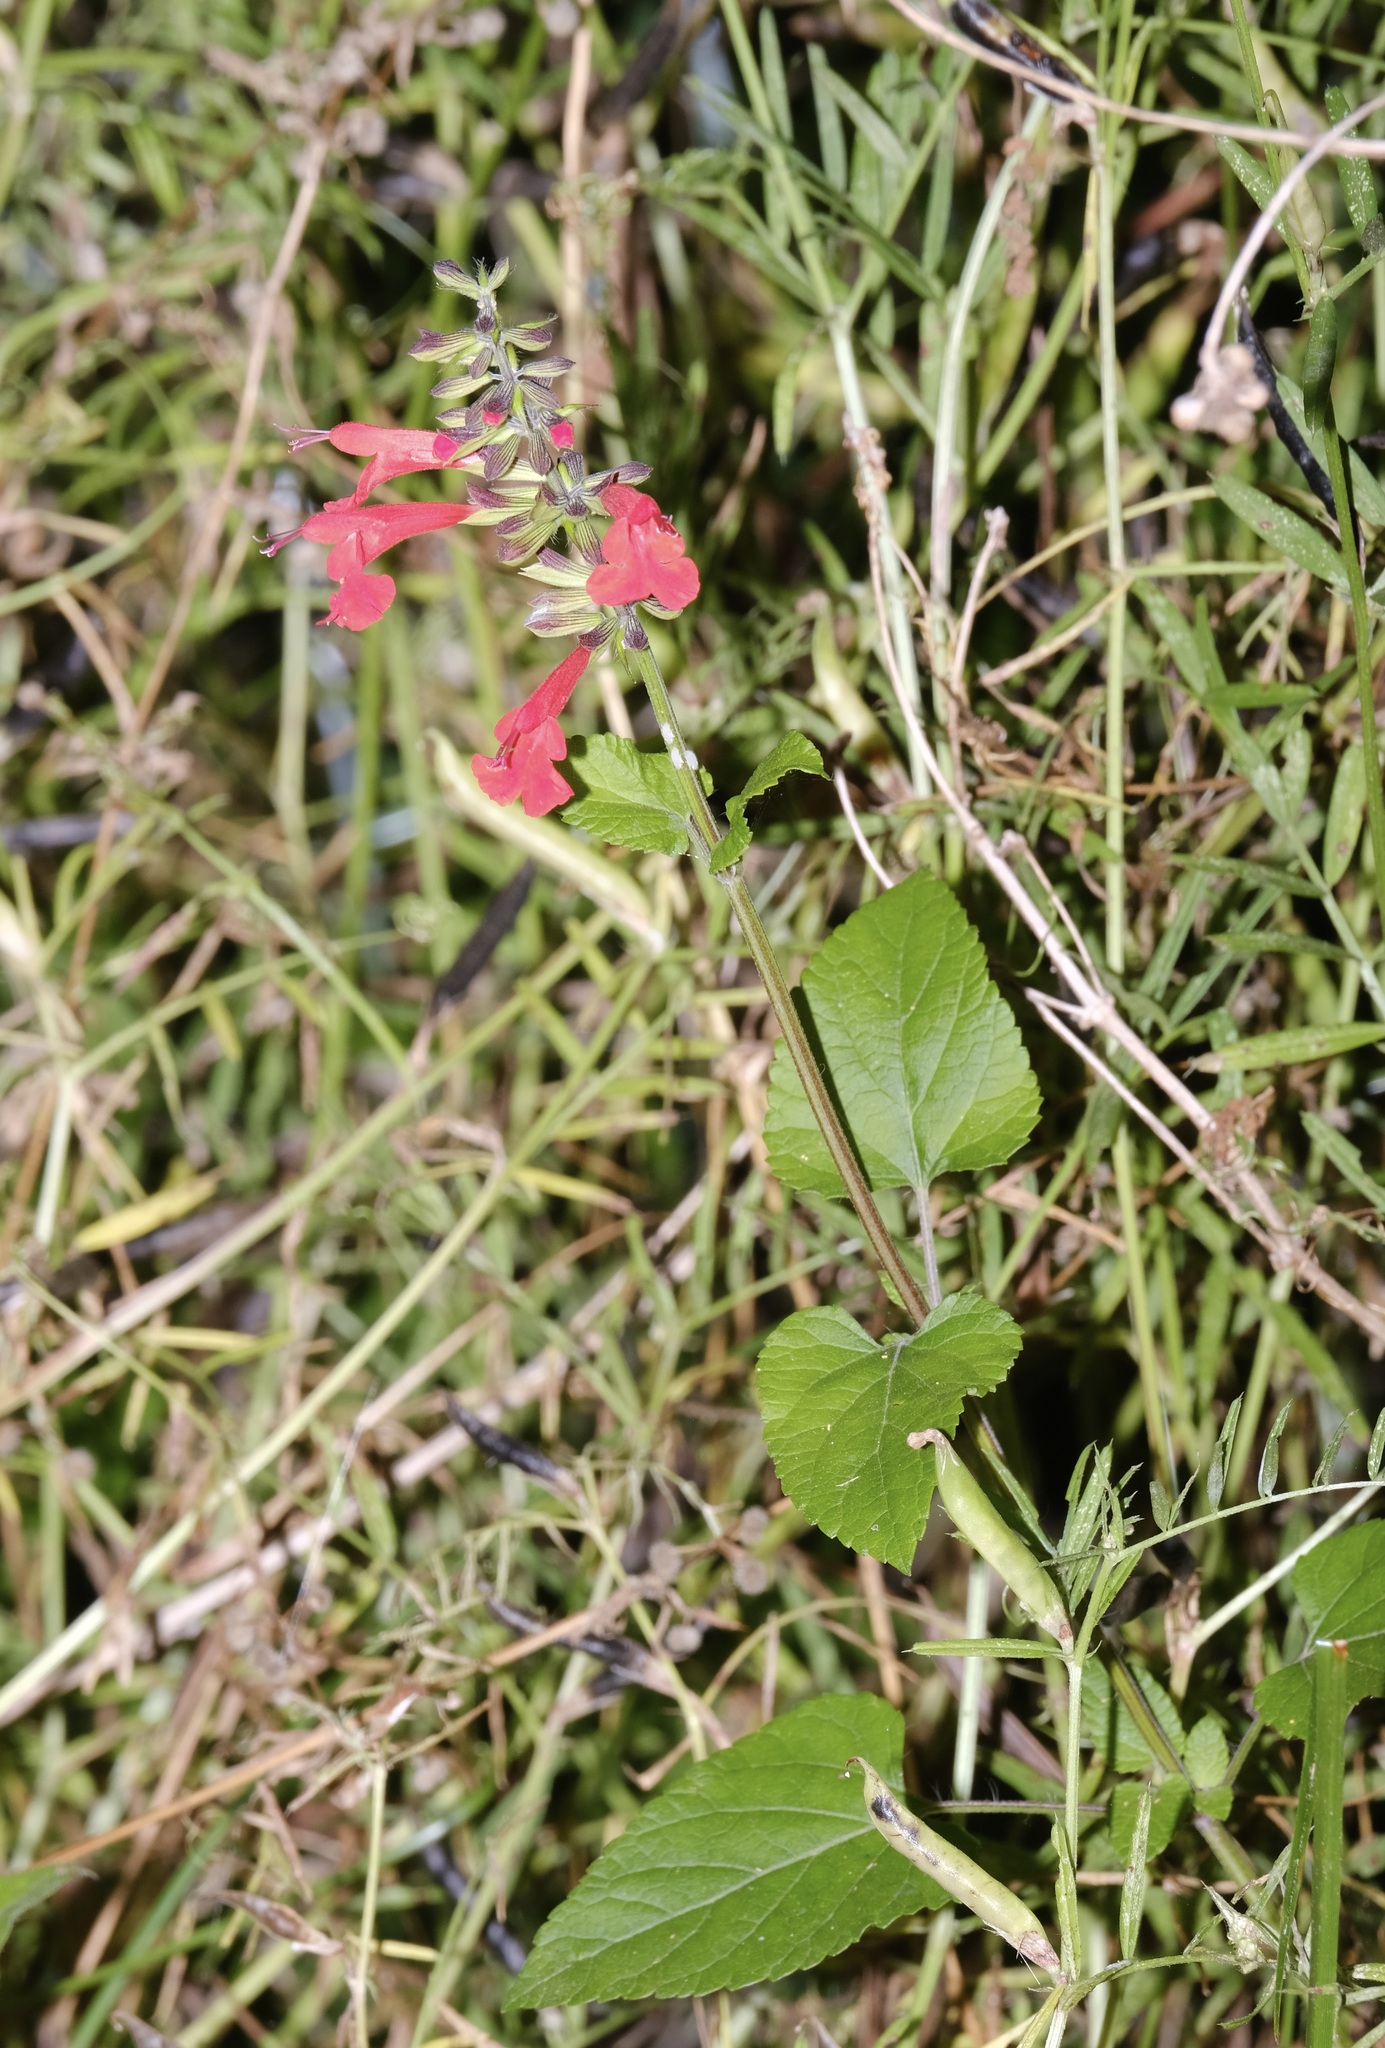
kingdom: Plantae
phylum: Tracheophyta
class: Magnoliopsida
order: Lamiales
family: Lamiaceae
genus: Salvia
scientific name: Salvia coccinea
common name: Blood sage
